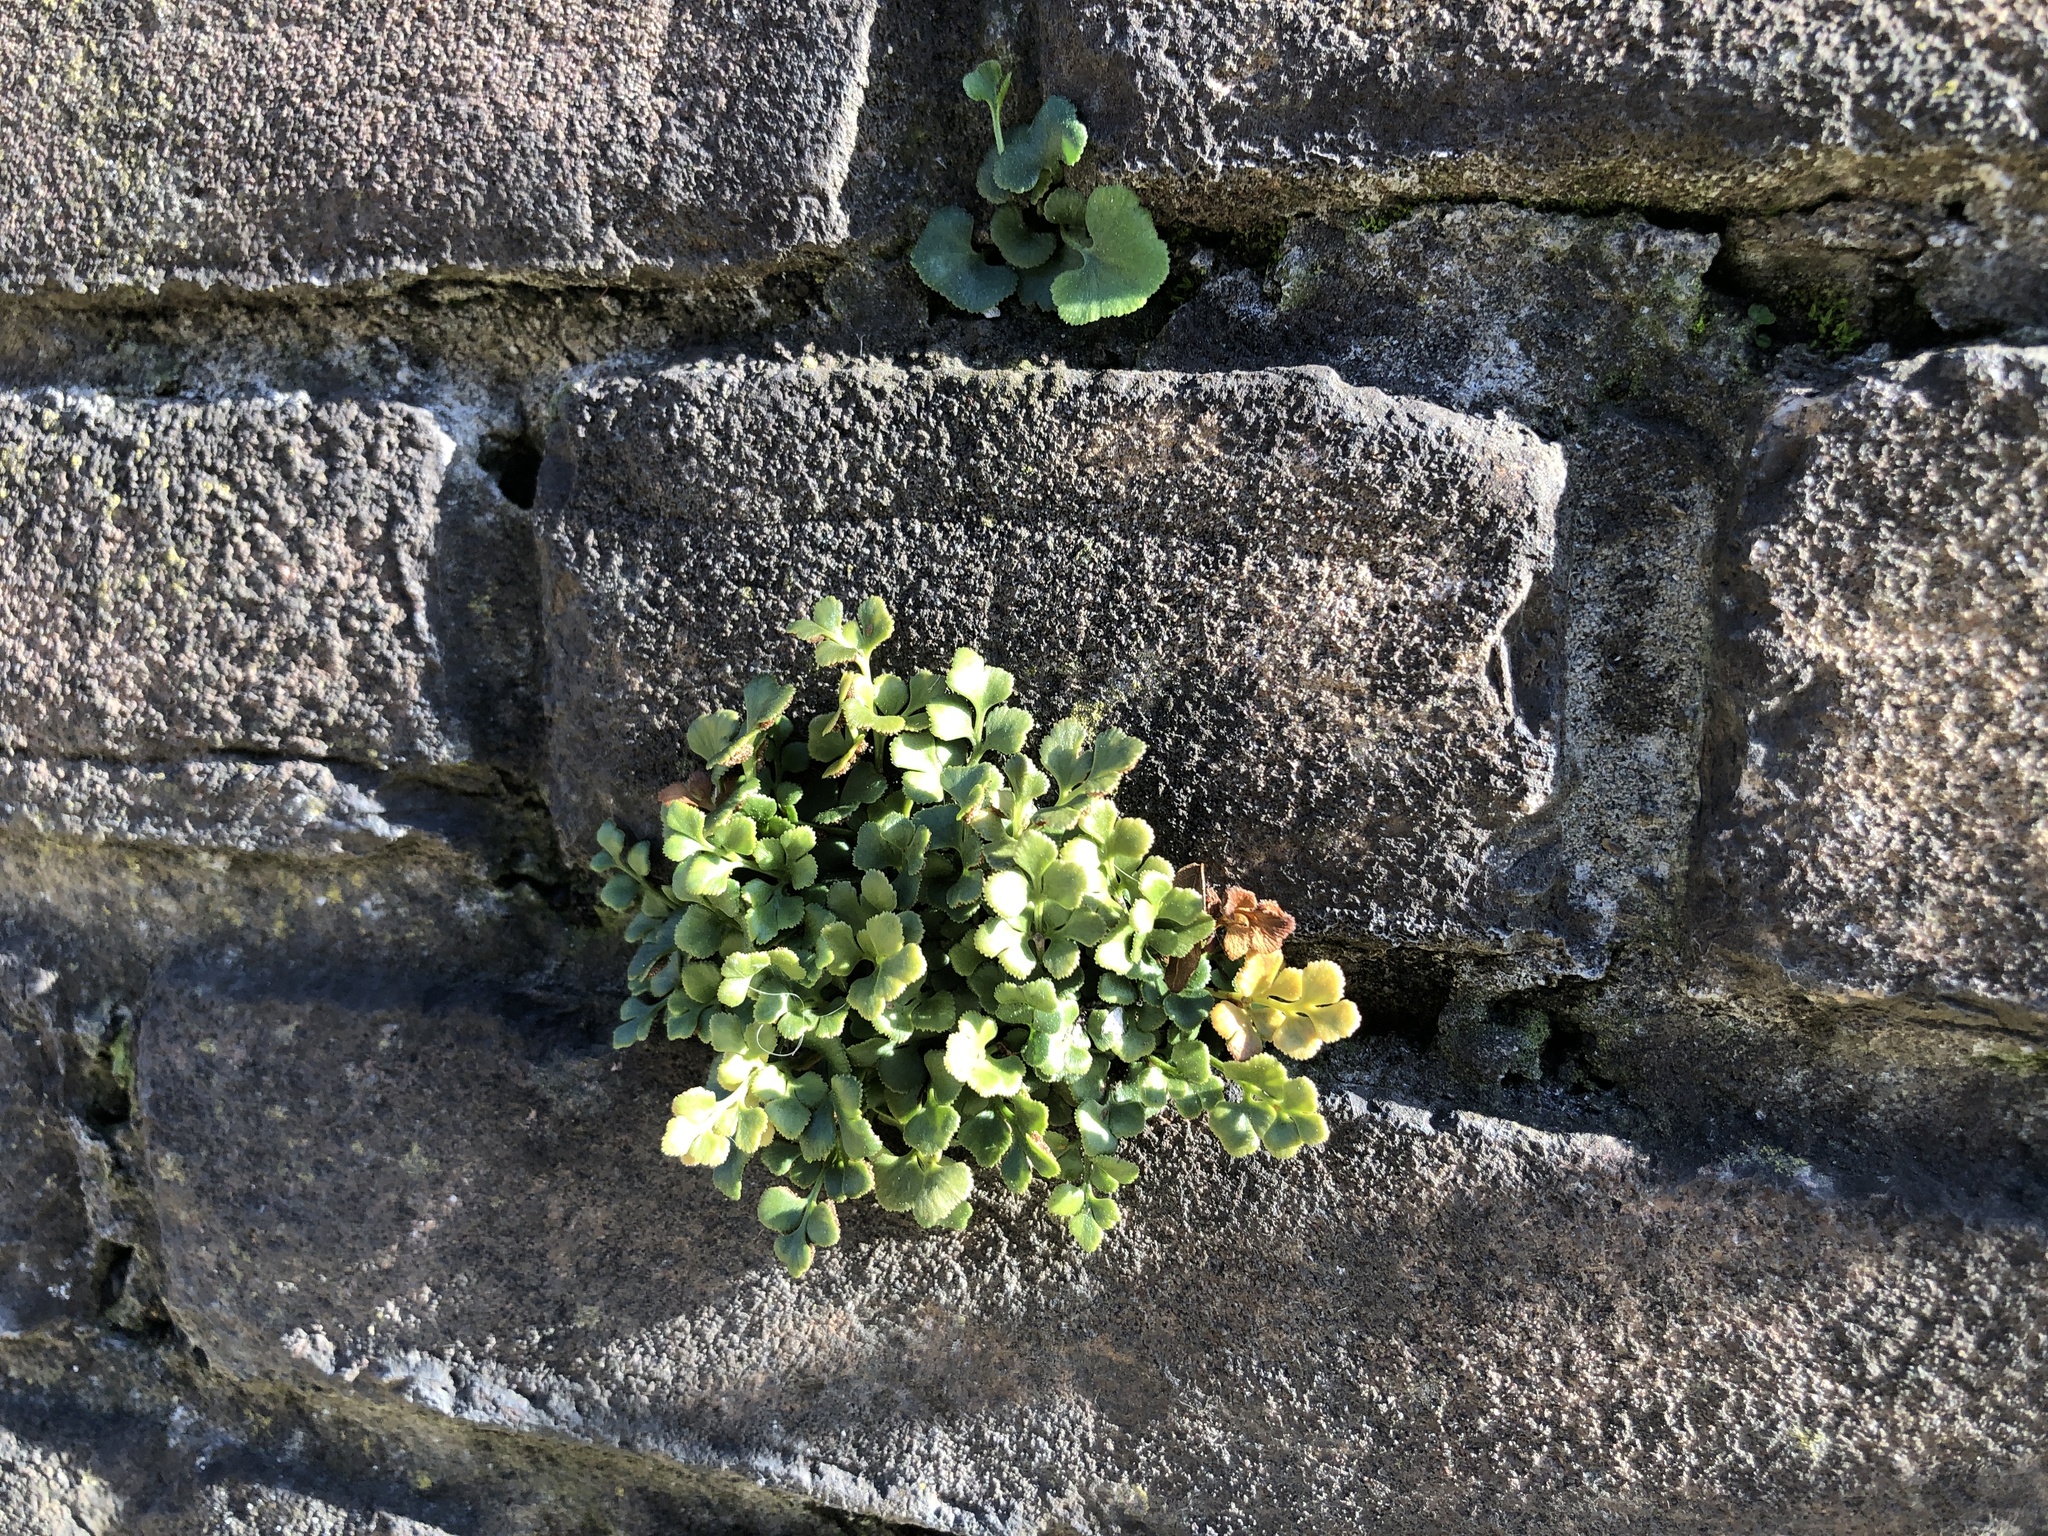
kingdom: Plantae
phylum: Tracheophyta
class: Polypodiopsida
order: Polypodiales
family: Aspleniaceae
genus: Asplenium
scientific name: Asplenium ruta-muraria
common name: Wall-rue
